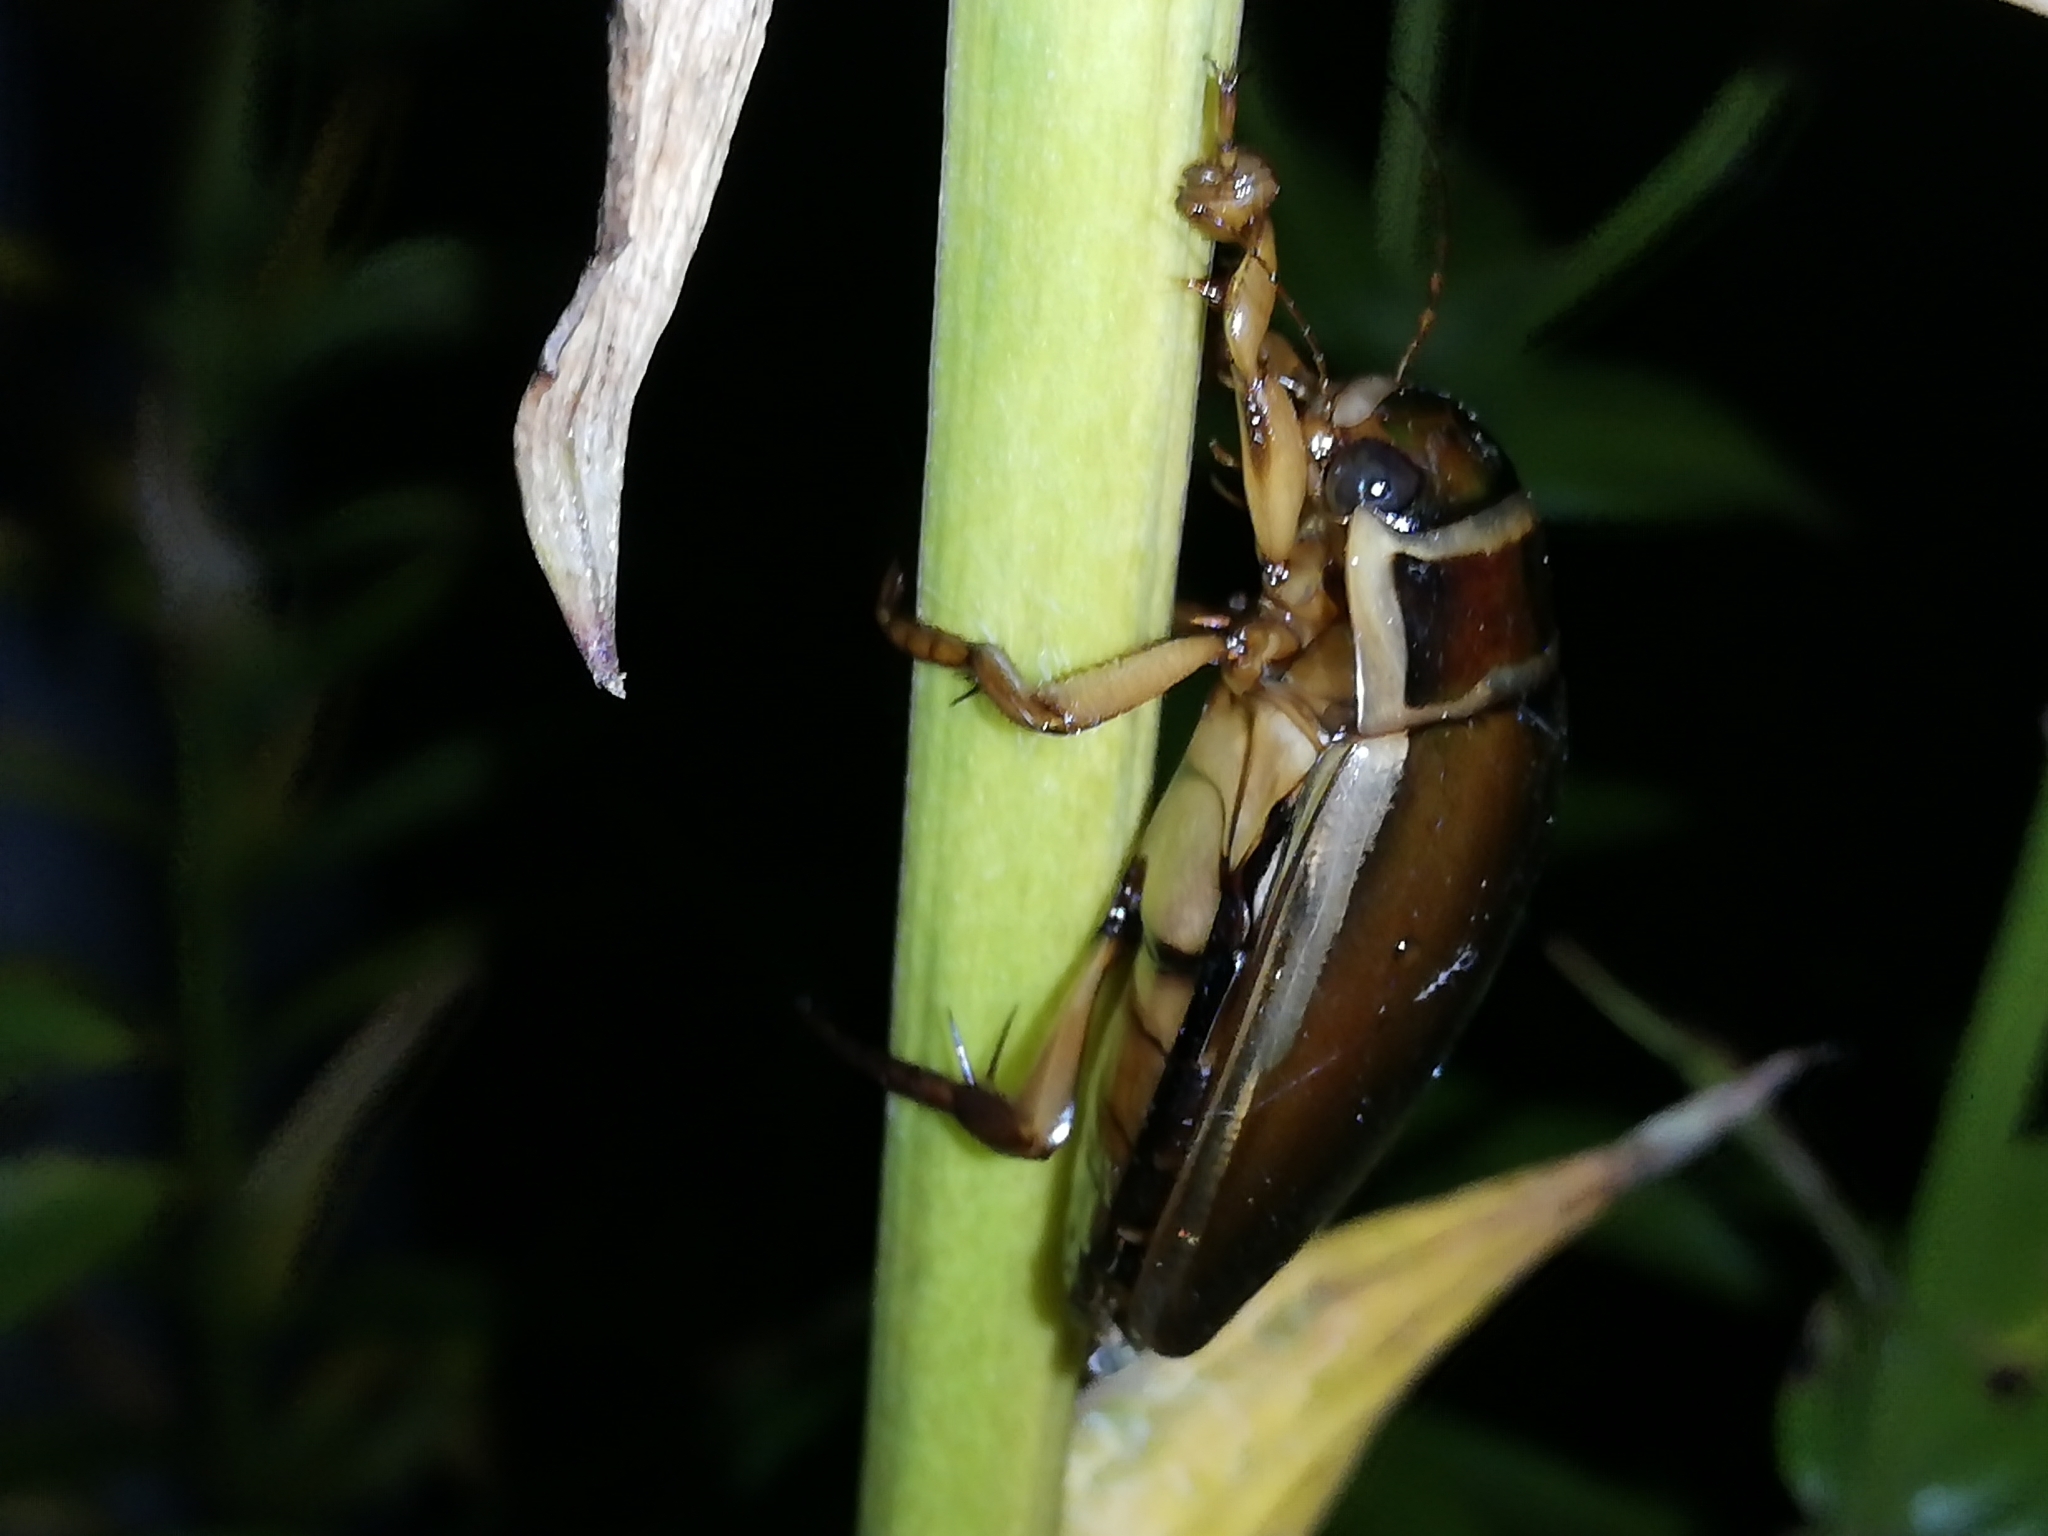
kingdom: Animalia
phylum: Arthropoda
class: Insecta
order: Coleoptera
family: Dytiscidae
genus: Dytiscus
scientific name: Dytiscus marginalis
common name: Great water beetle
